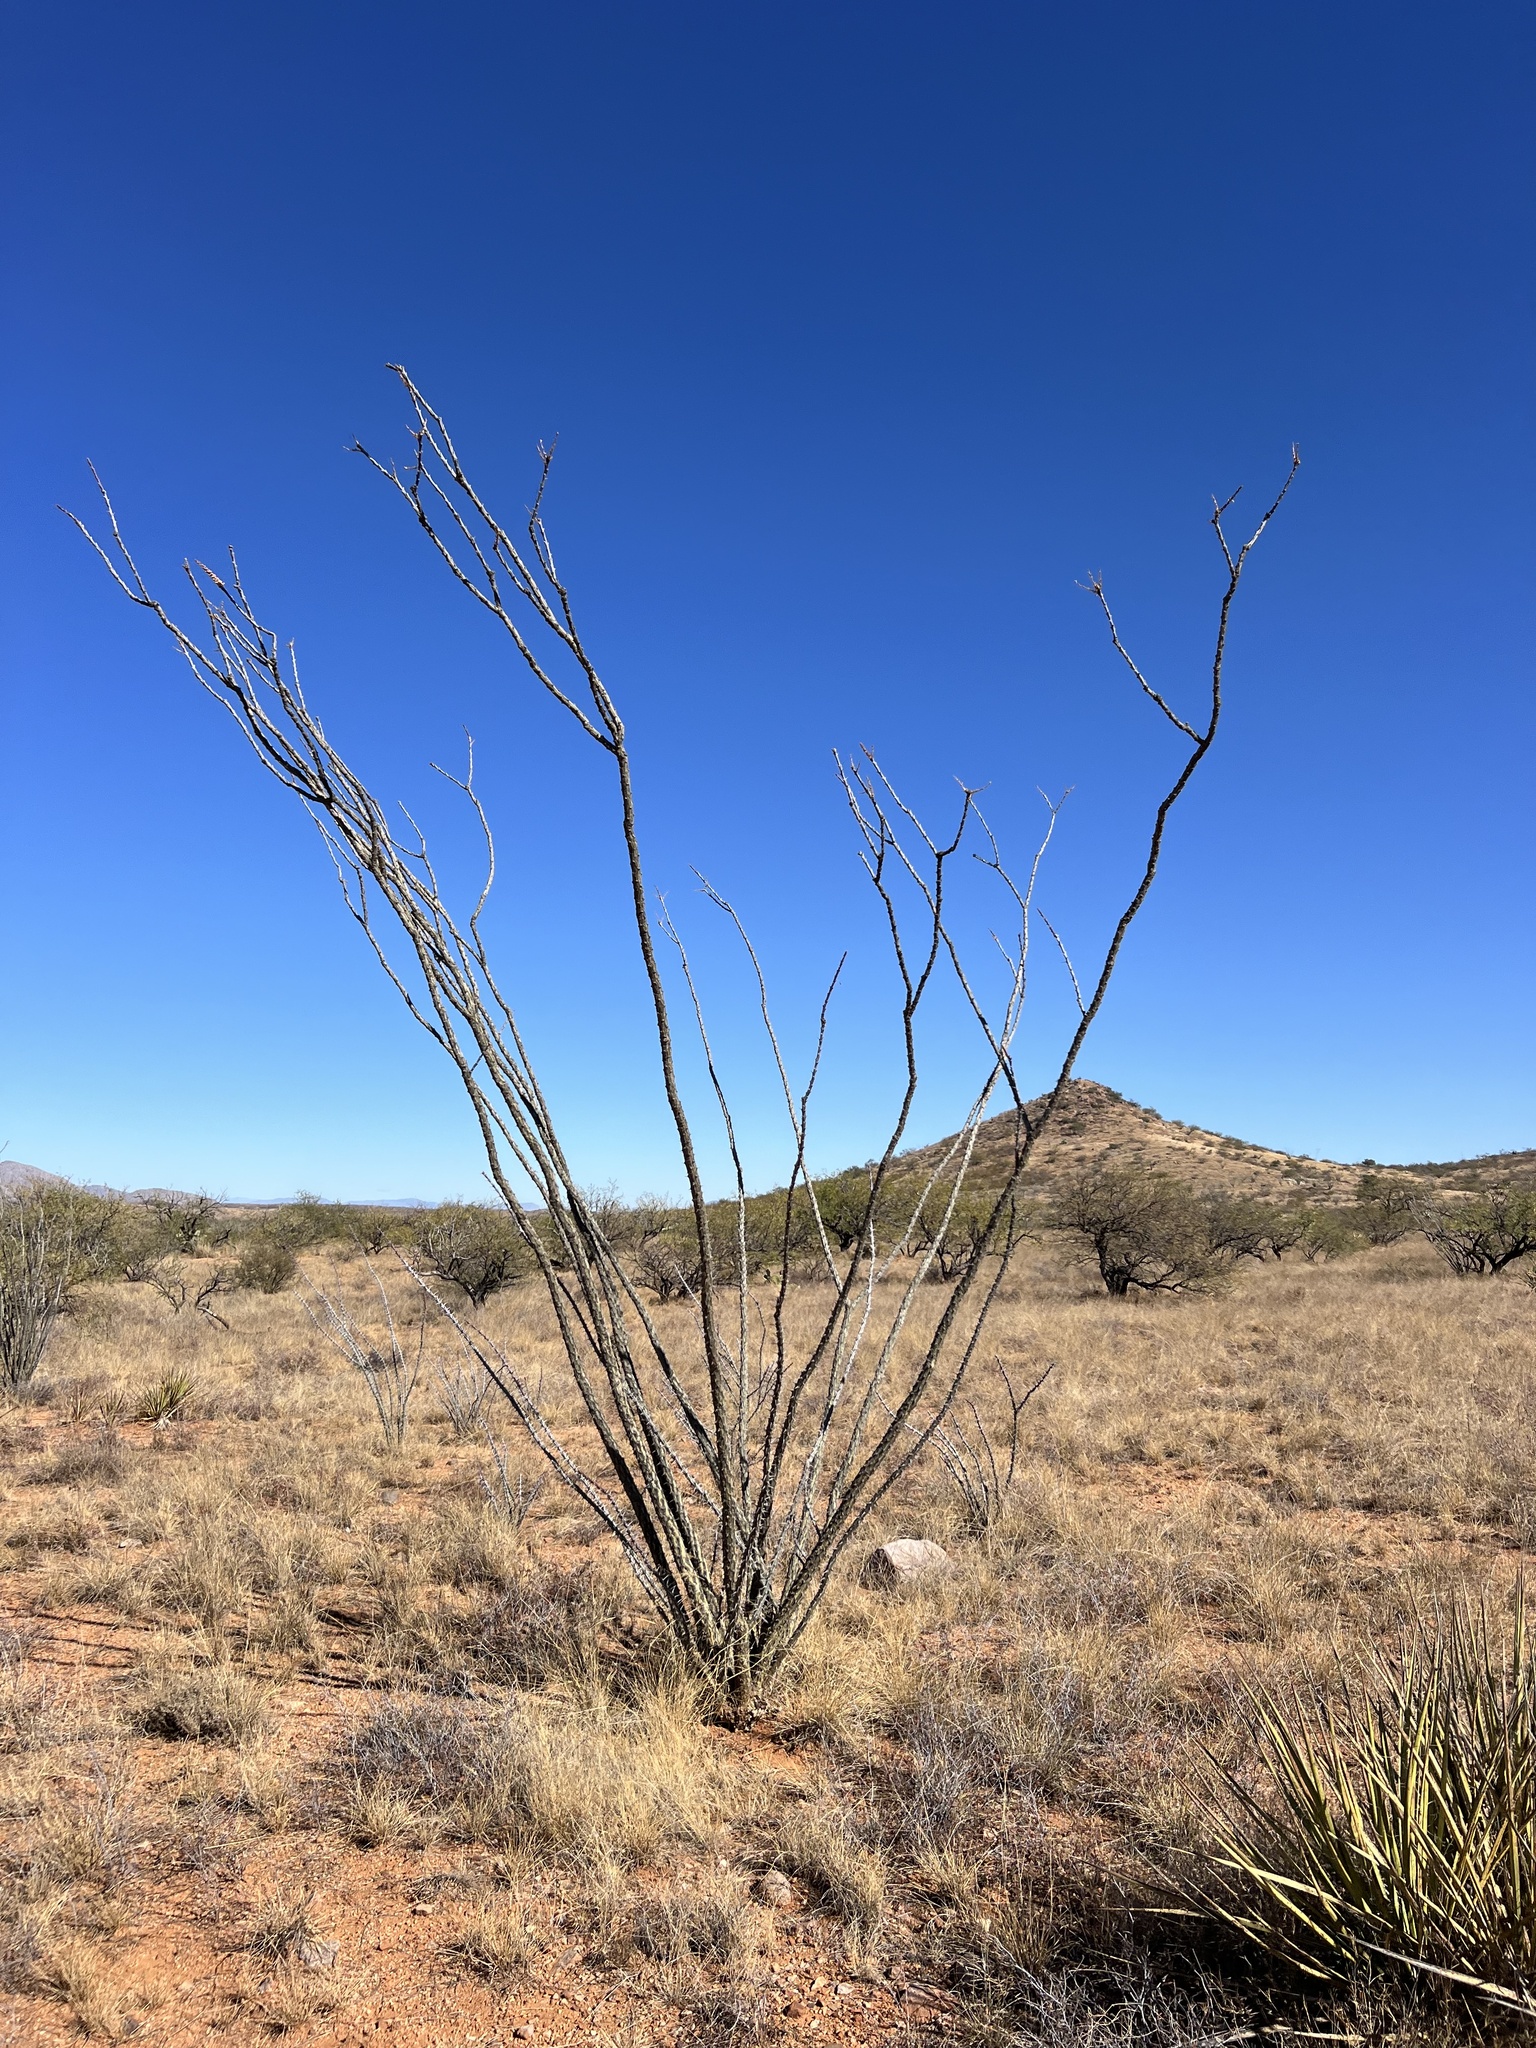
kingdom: Plantae
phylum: Tracheophyta
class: Magnoliopsida
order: Ericales
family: Fouquieriaceae
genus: Fouquieria
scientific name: Fouquieria splendens
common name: Vine-cactus
